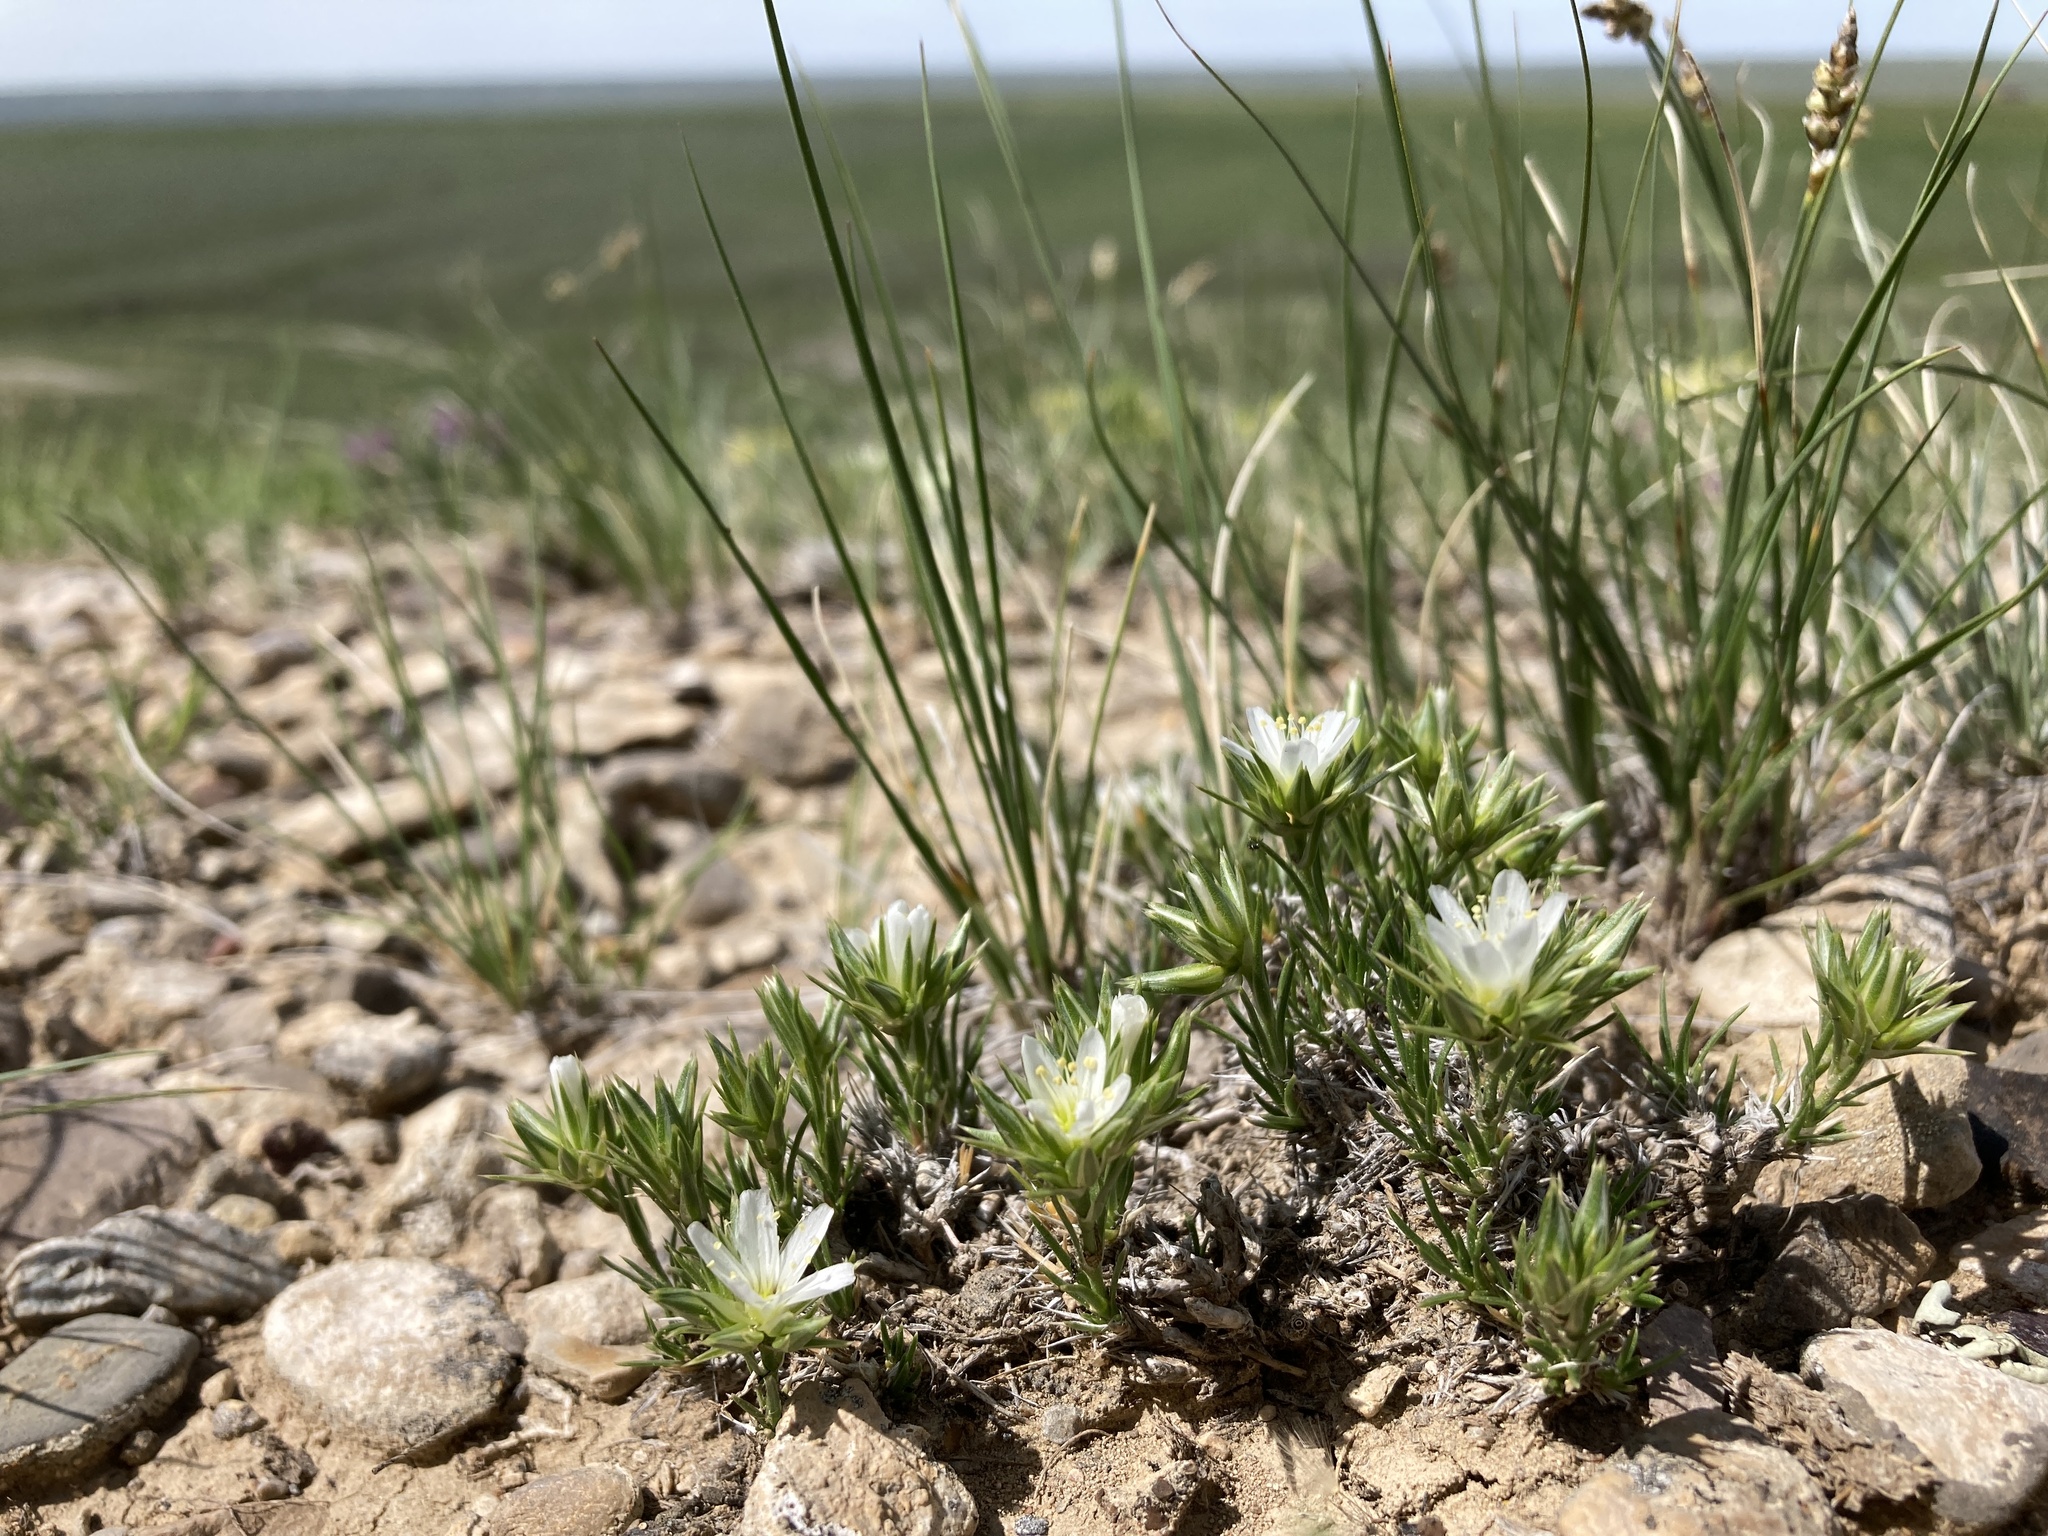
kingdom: Plantae
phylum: Tracheophyta
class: Magnoliopsida
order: Caryophyllales
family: Caryophyllaceae
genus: Eremogone
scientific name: Eremogone hookeri
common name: Hooker's sandwort
